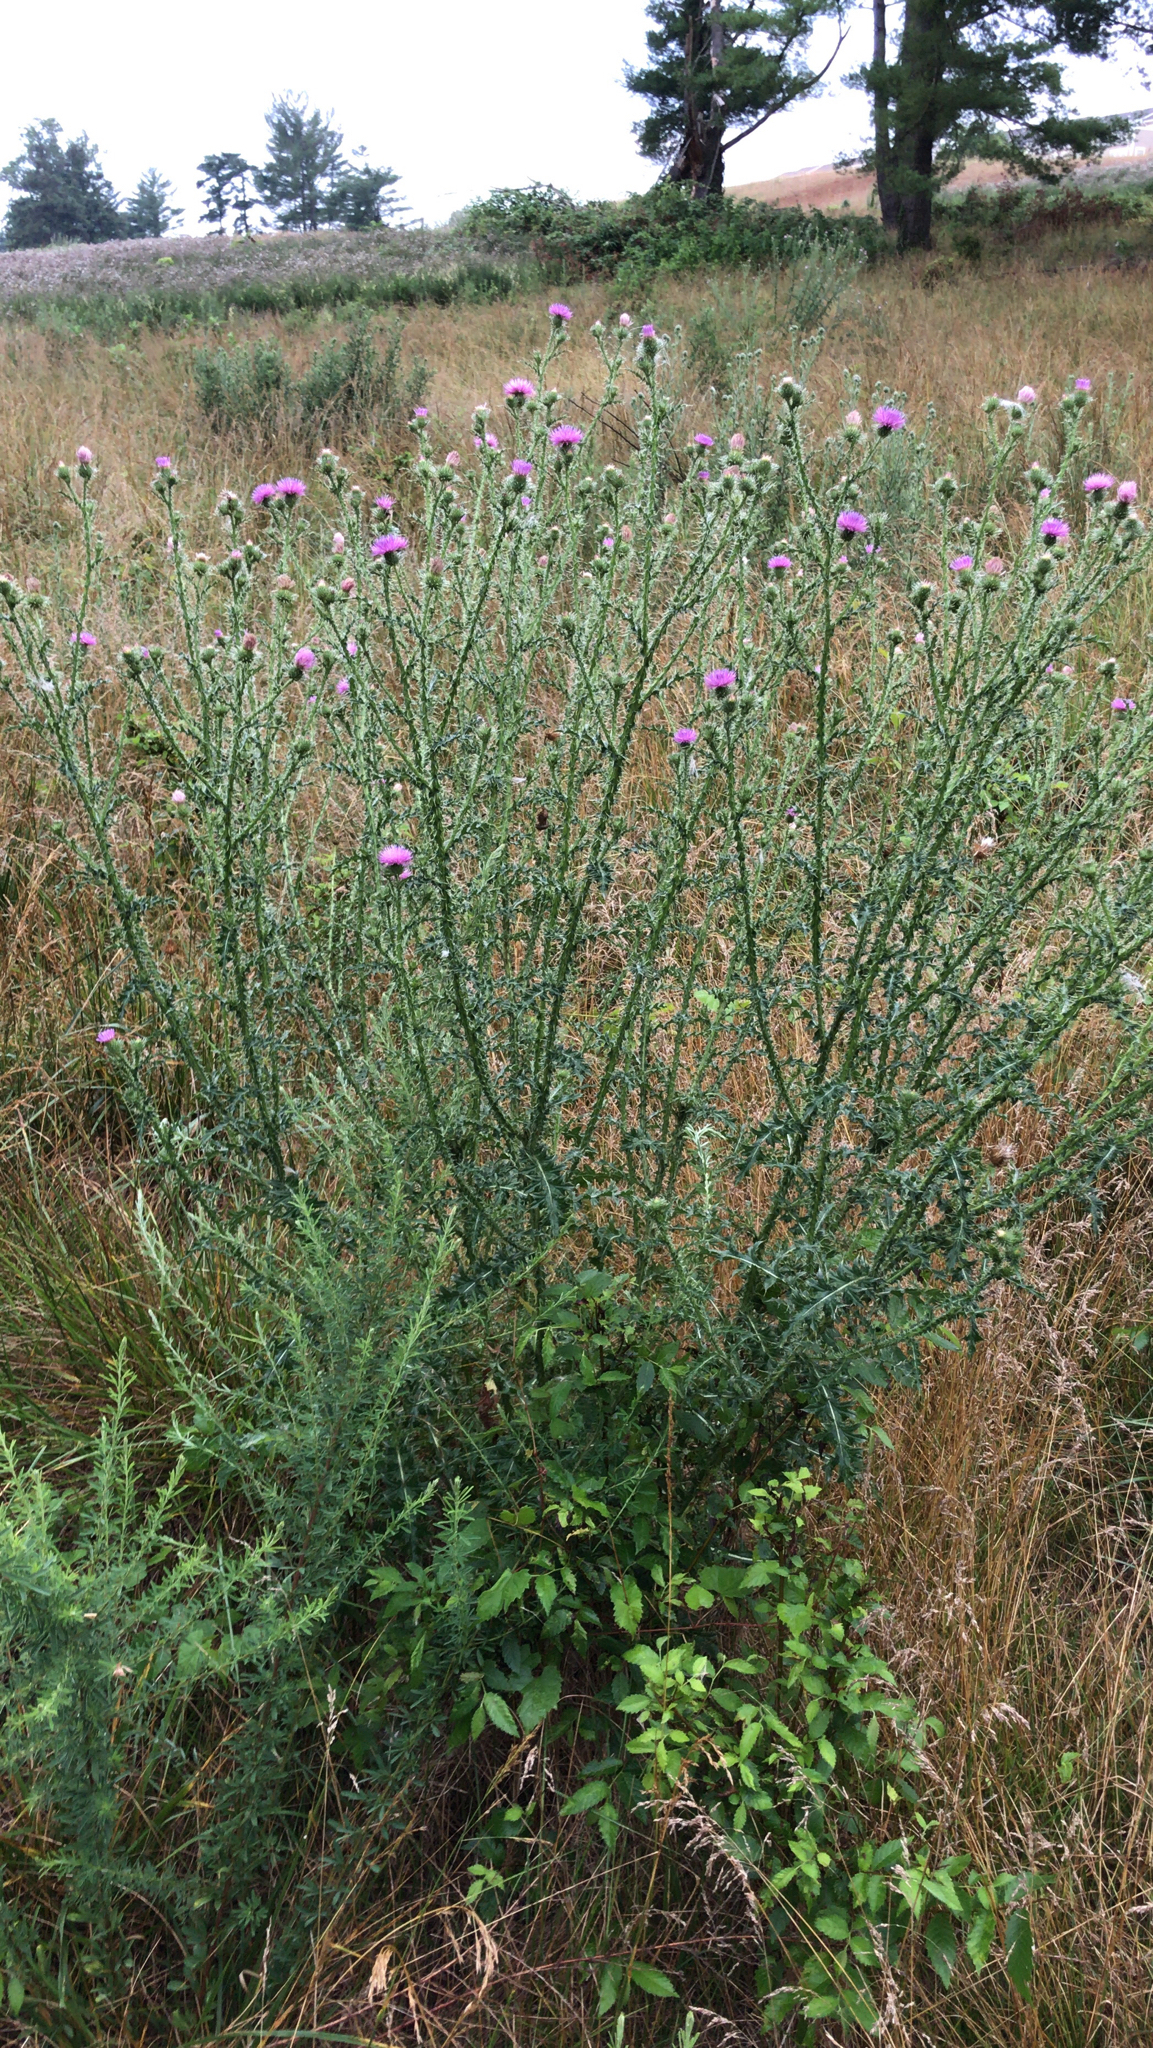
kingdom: Plantae
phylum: Tracheophyta
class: Magnoliopsida
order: Asterales
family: Asteraceae
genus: Carduus
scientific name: Carduus acanthoides
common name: Plumeless thistle
